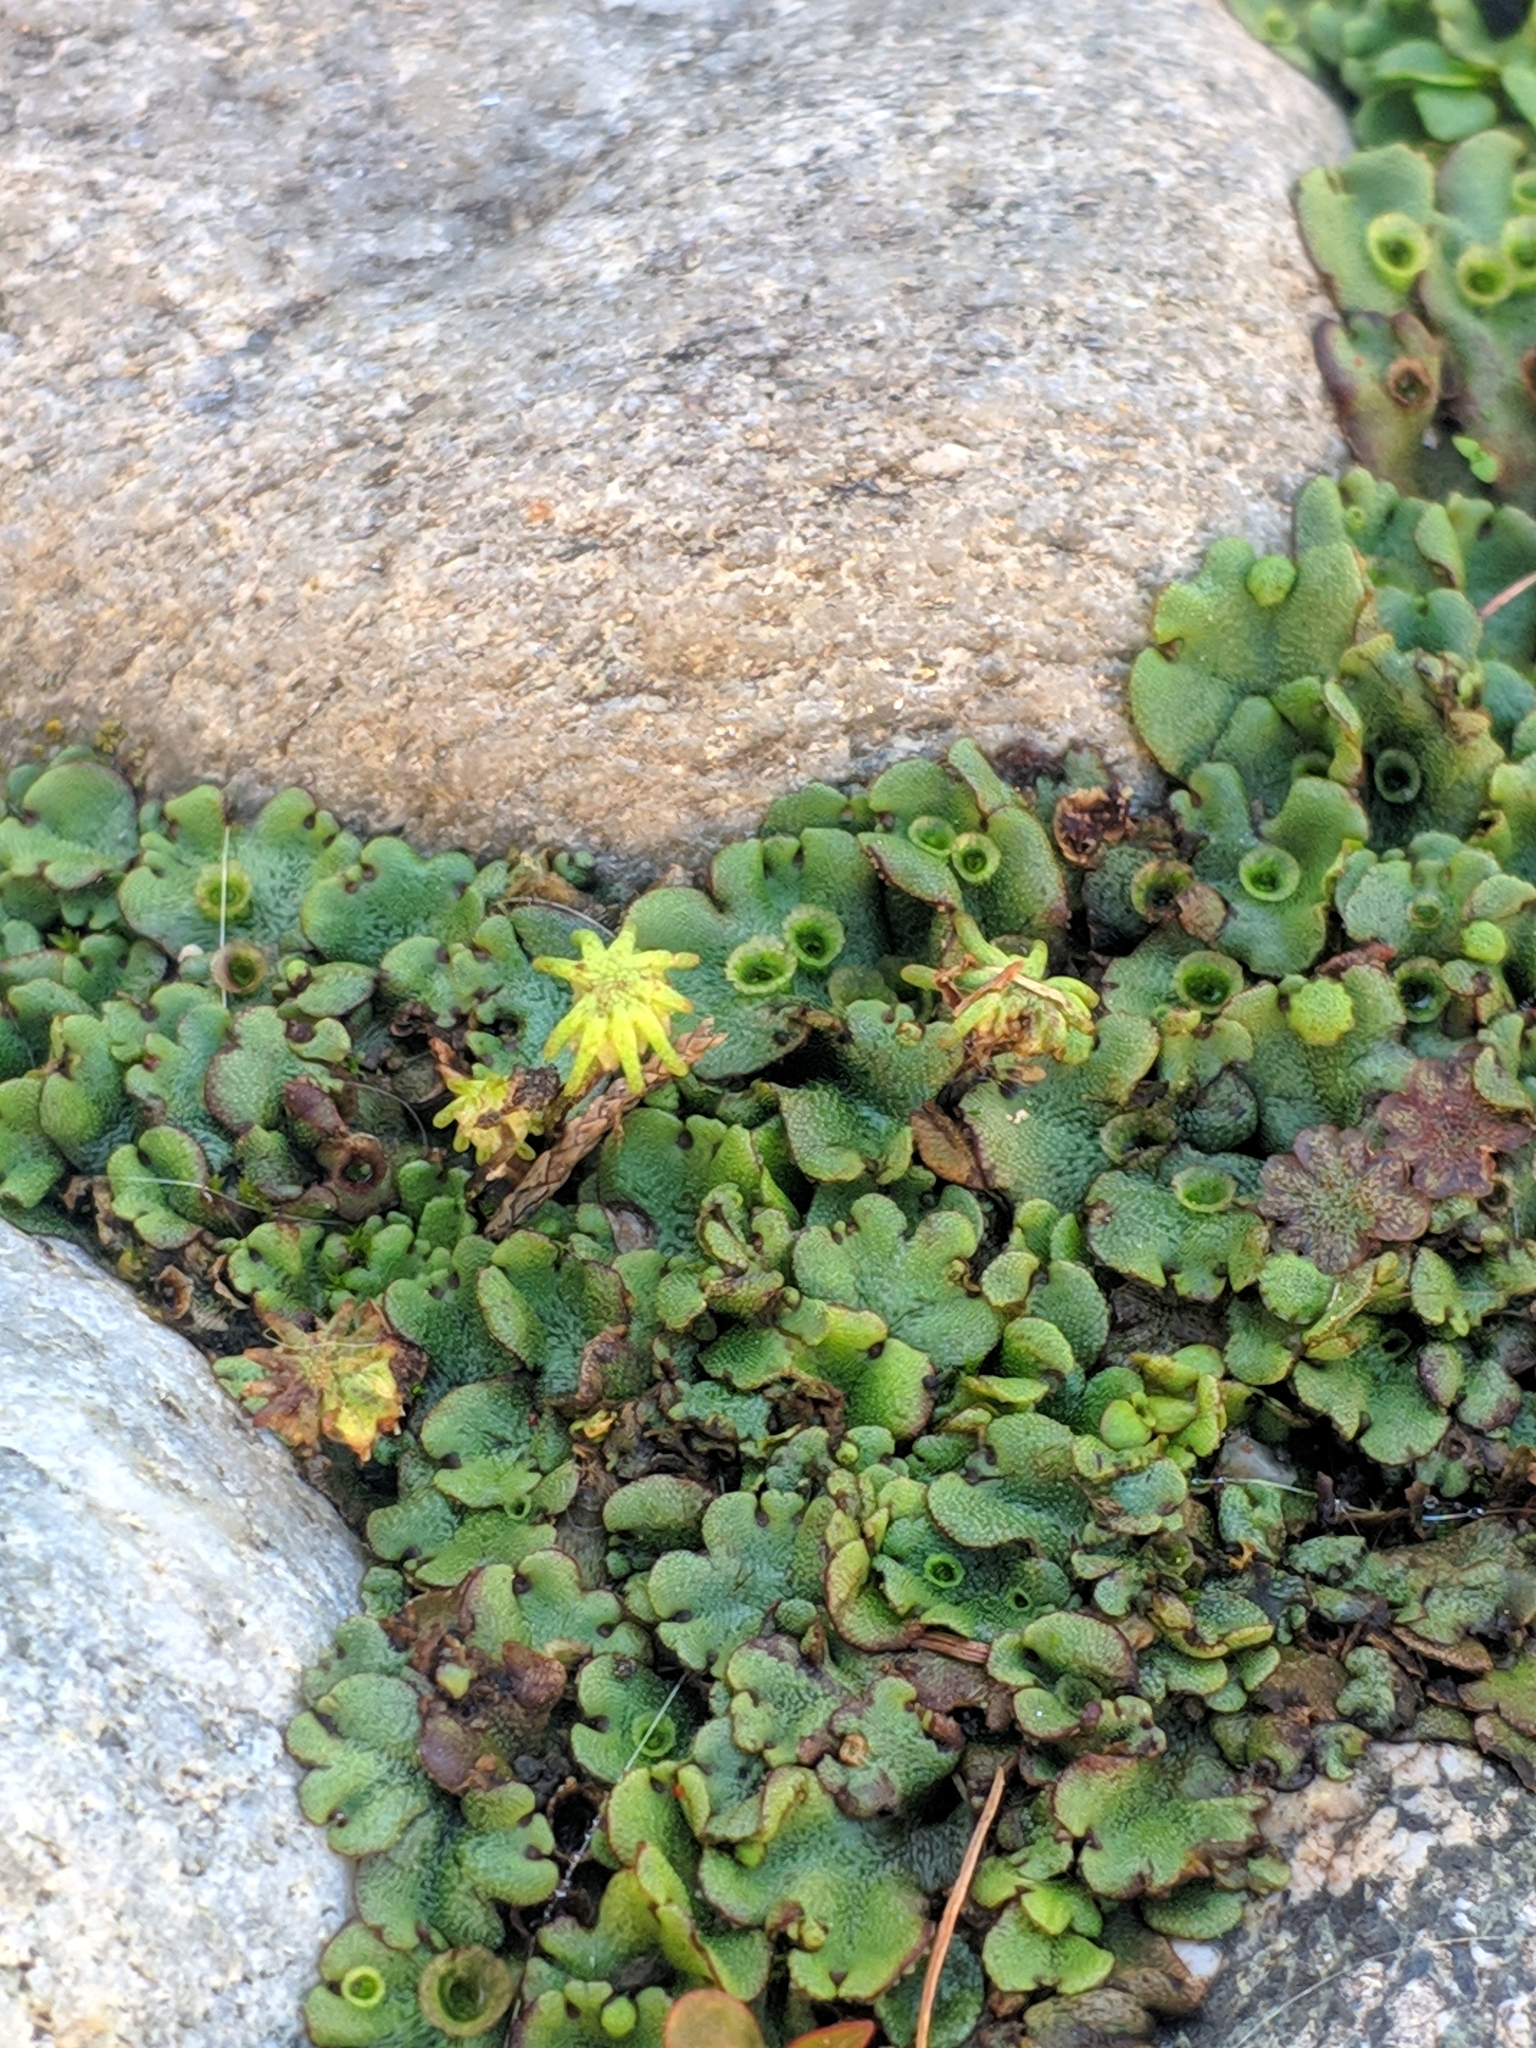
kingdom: Plantae
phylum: Marchantiophyta
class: Marchantiopsida
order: Marchantiales
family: Marchantiaceae
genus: Marchantia
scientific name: Marchantia polymorpha
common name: Common liverwort
